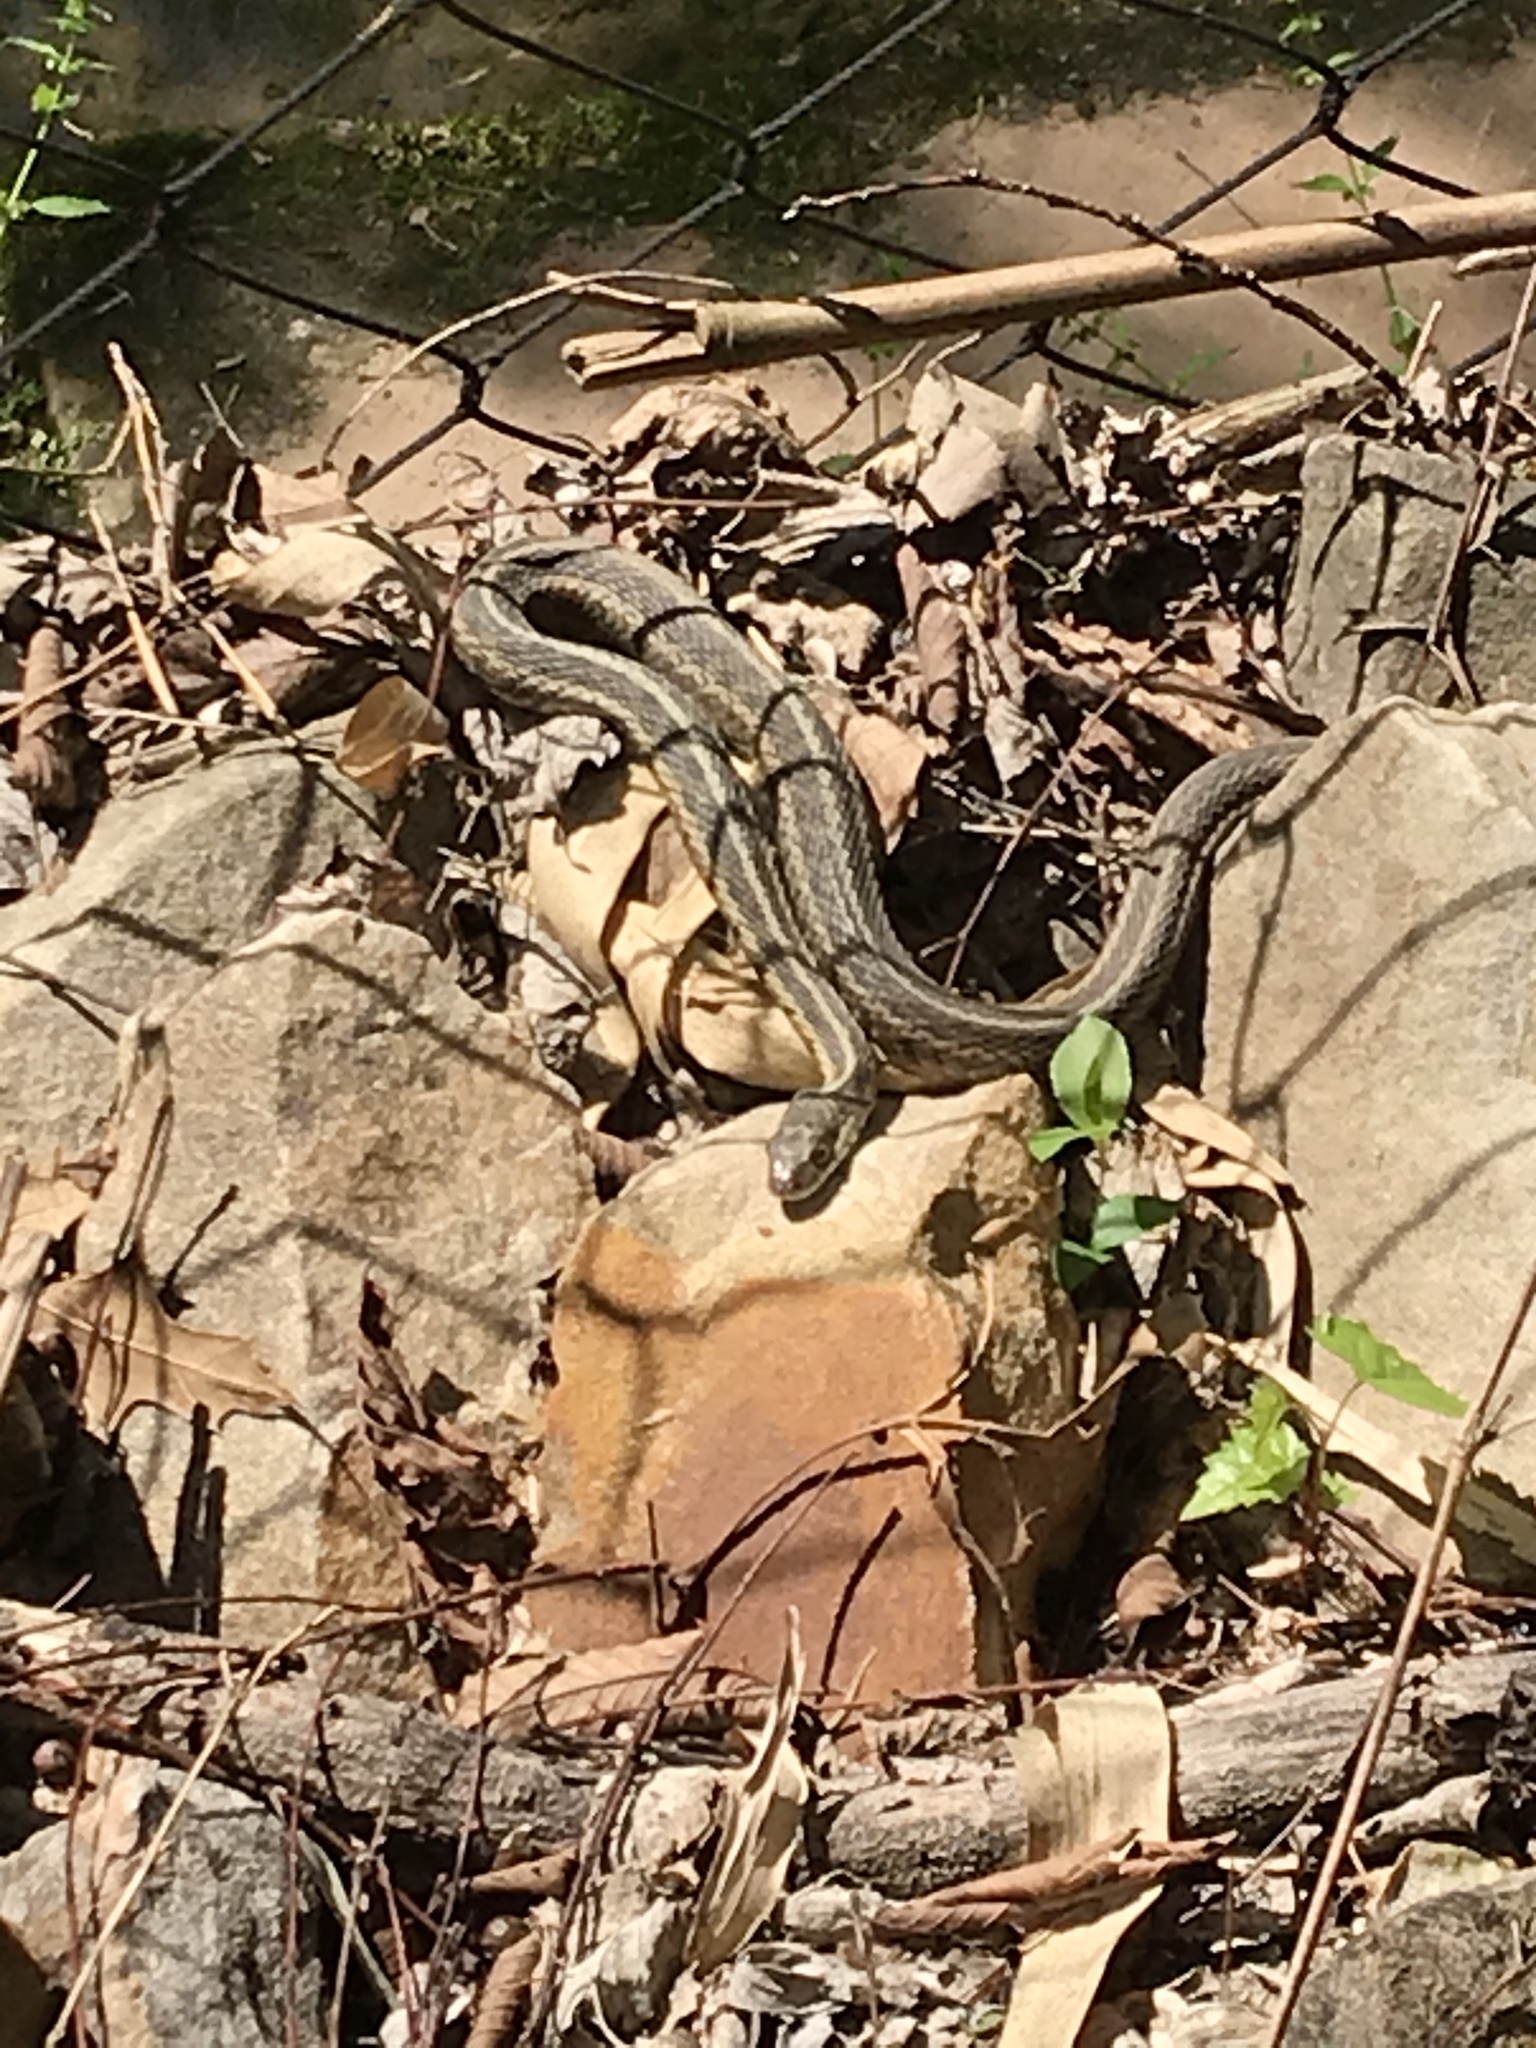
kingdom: Animalia
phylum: Chordata
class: Squamata
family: Colubridae
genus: Thamnophis
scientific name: Thamnophis sirtalis
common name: Common garter snake
